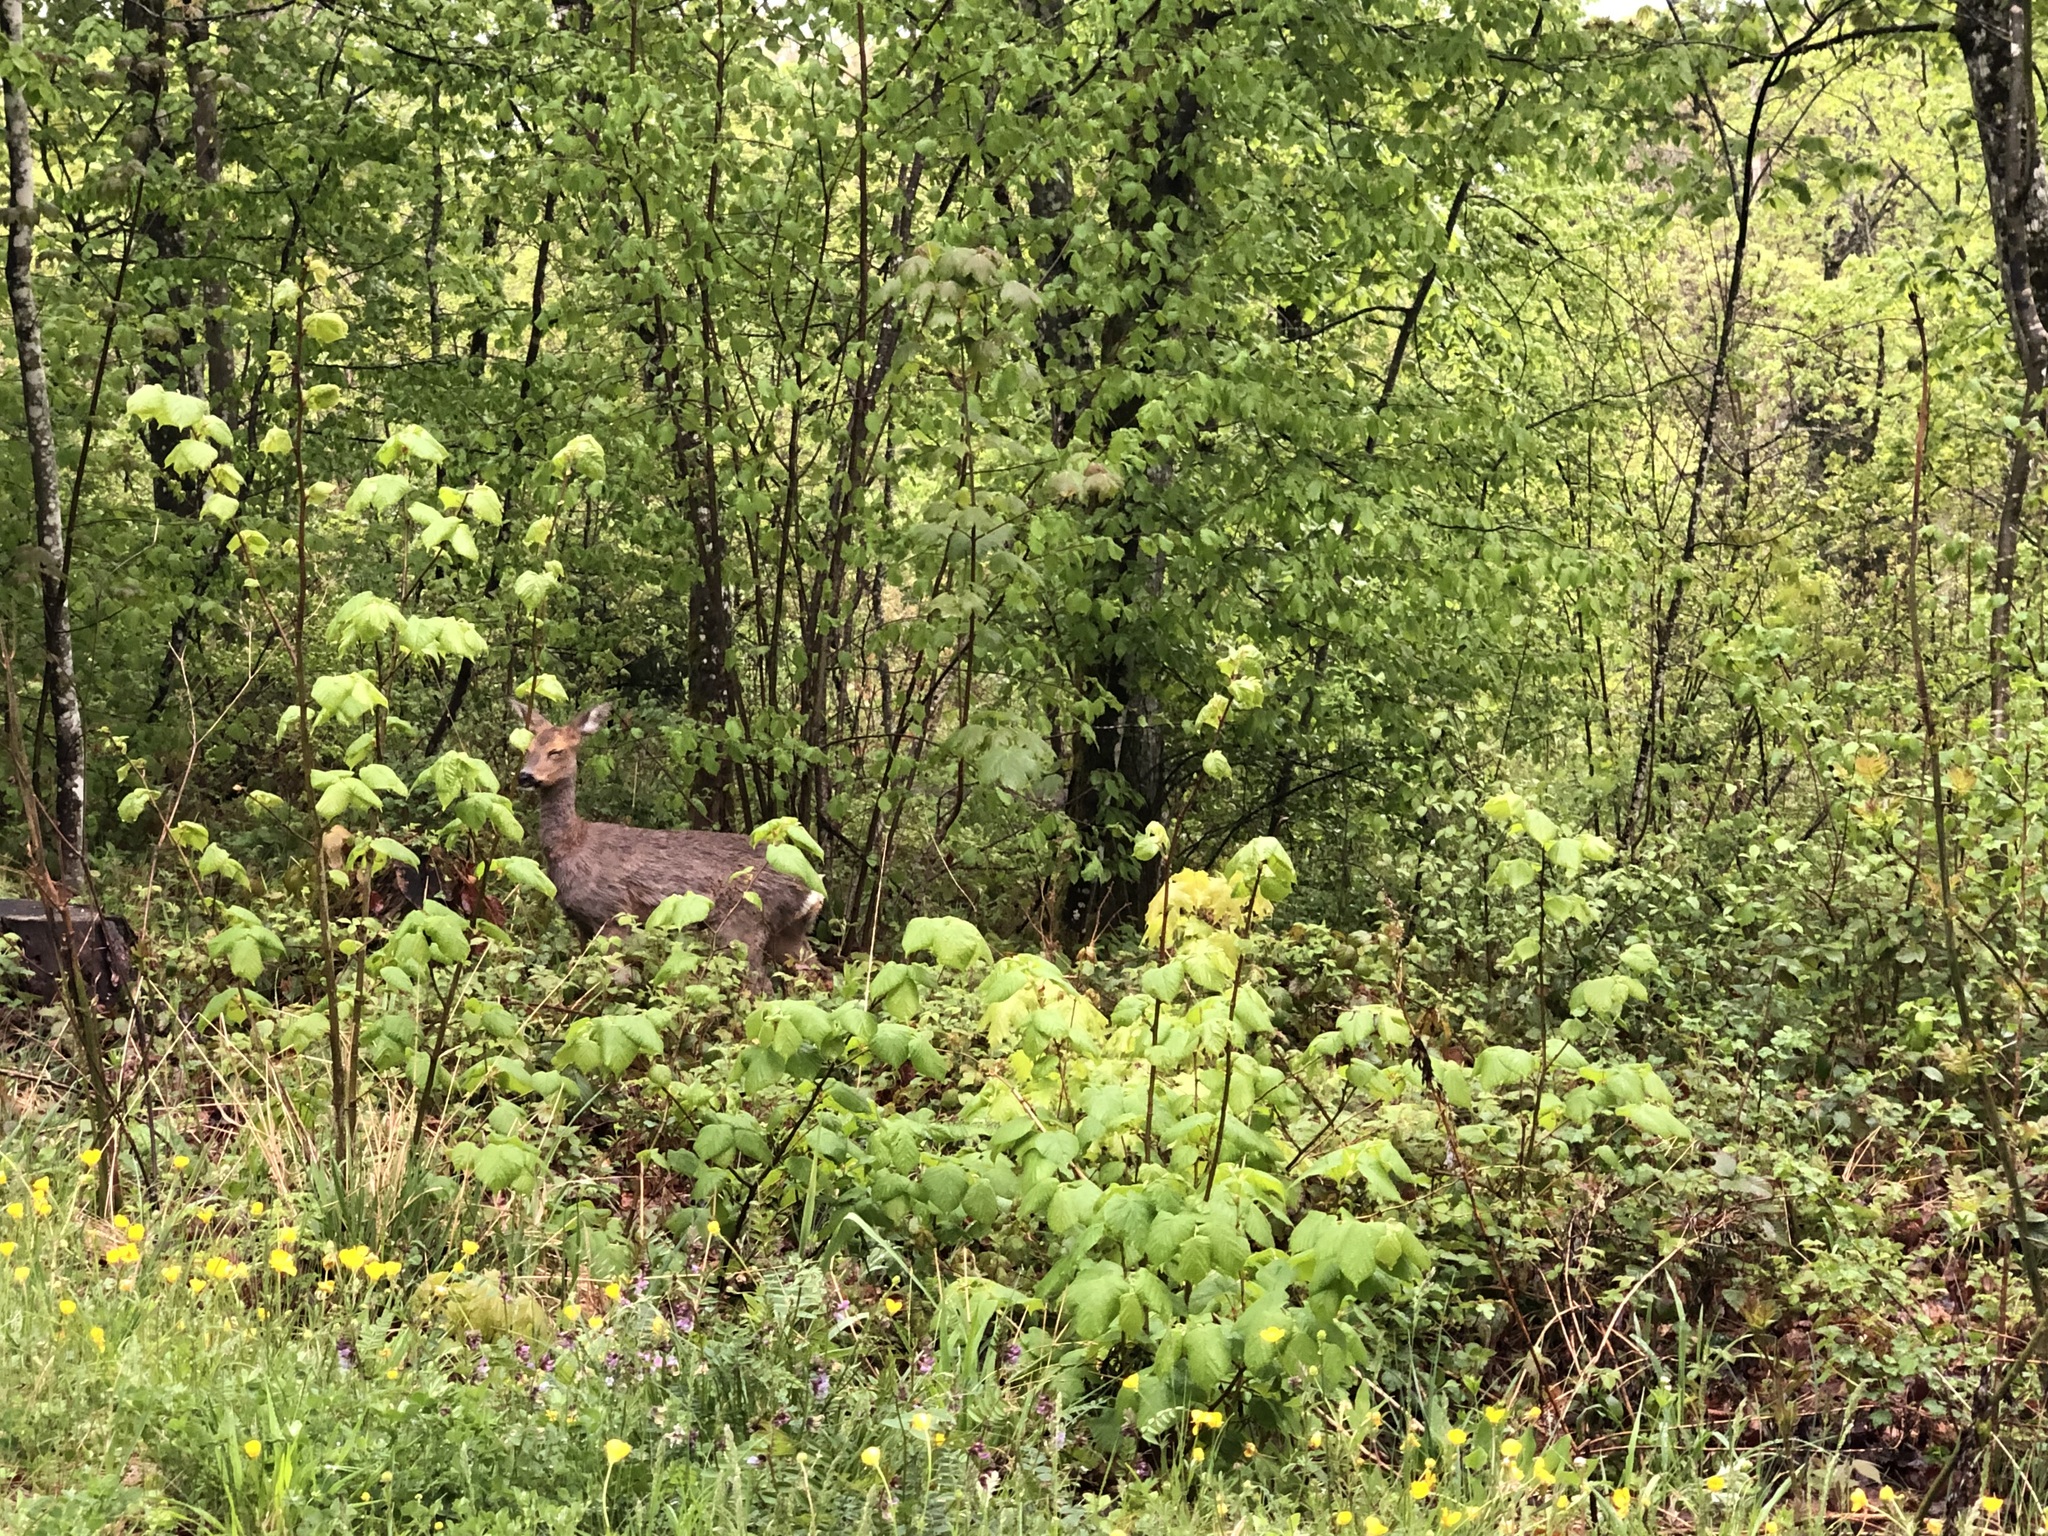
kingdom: Animalia
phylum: Chordata
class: Mammalia
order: Artiodactyla
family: Cervidae
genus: Capreolus
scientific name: Capreolus capreolus
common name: Western roe deer
